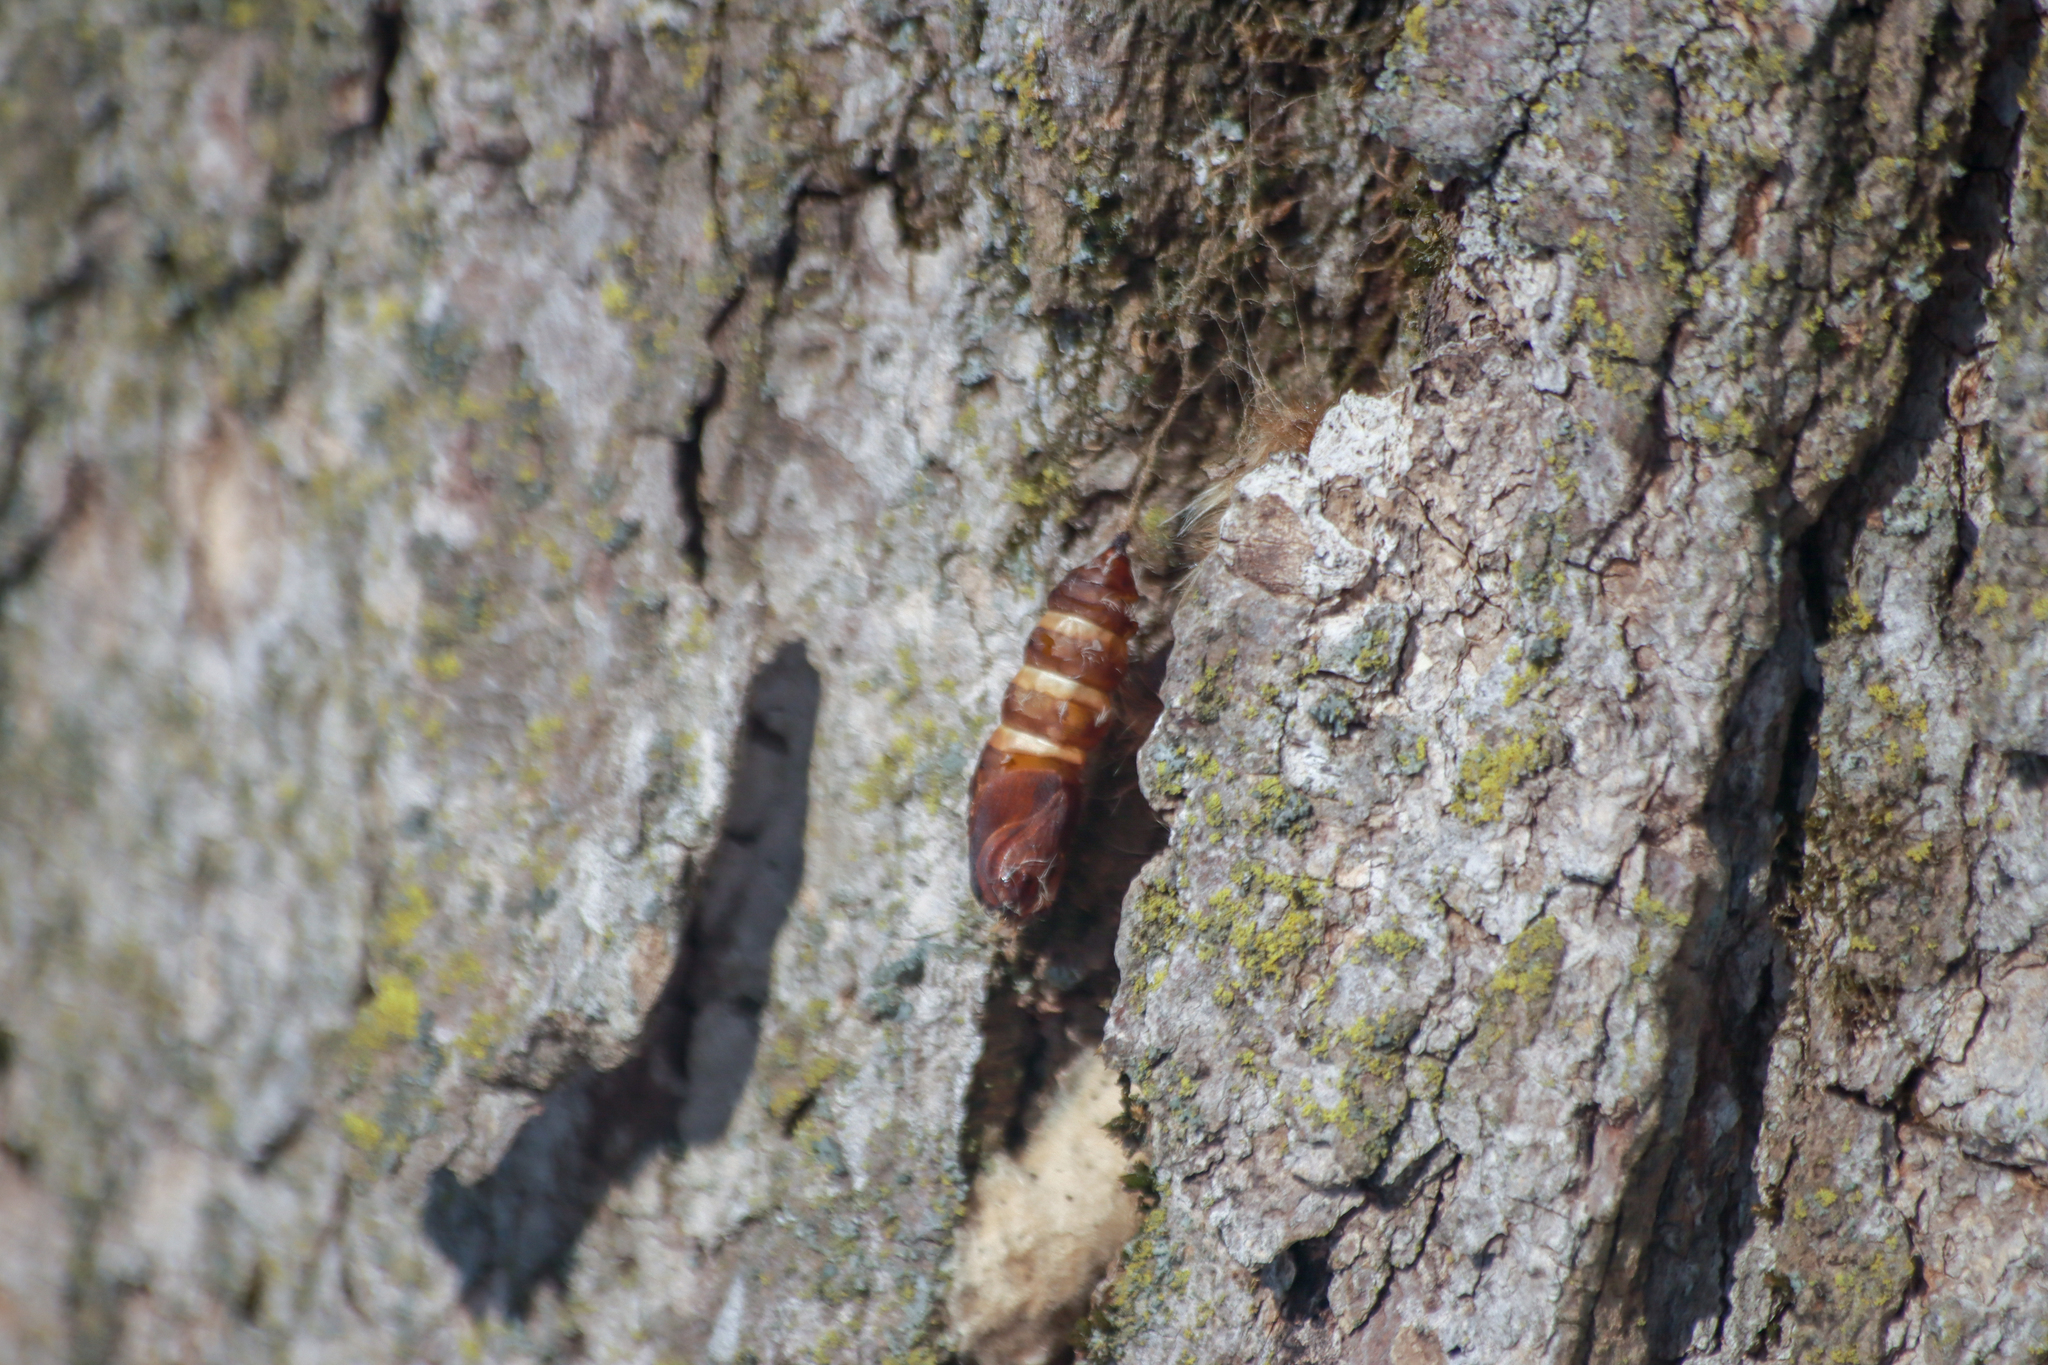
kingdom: Animalia
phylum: Arthropoda
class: Insecta
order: Lepidoptera
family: Erebidae
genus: Lymantria
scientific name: Lymantria dispar
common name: Gypsy moth
